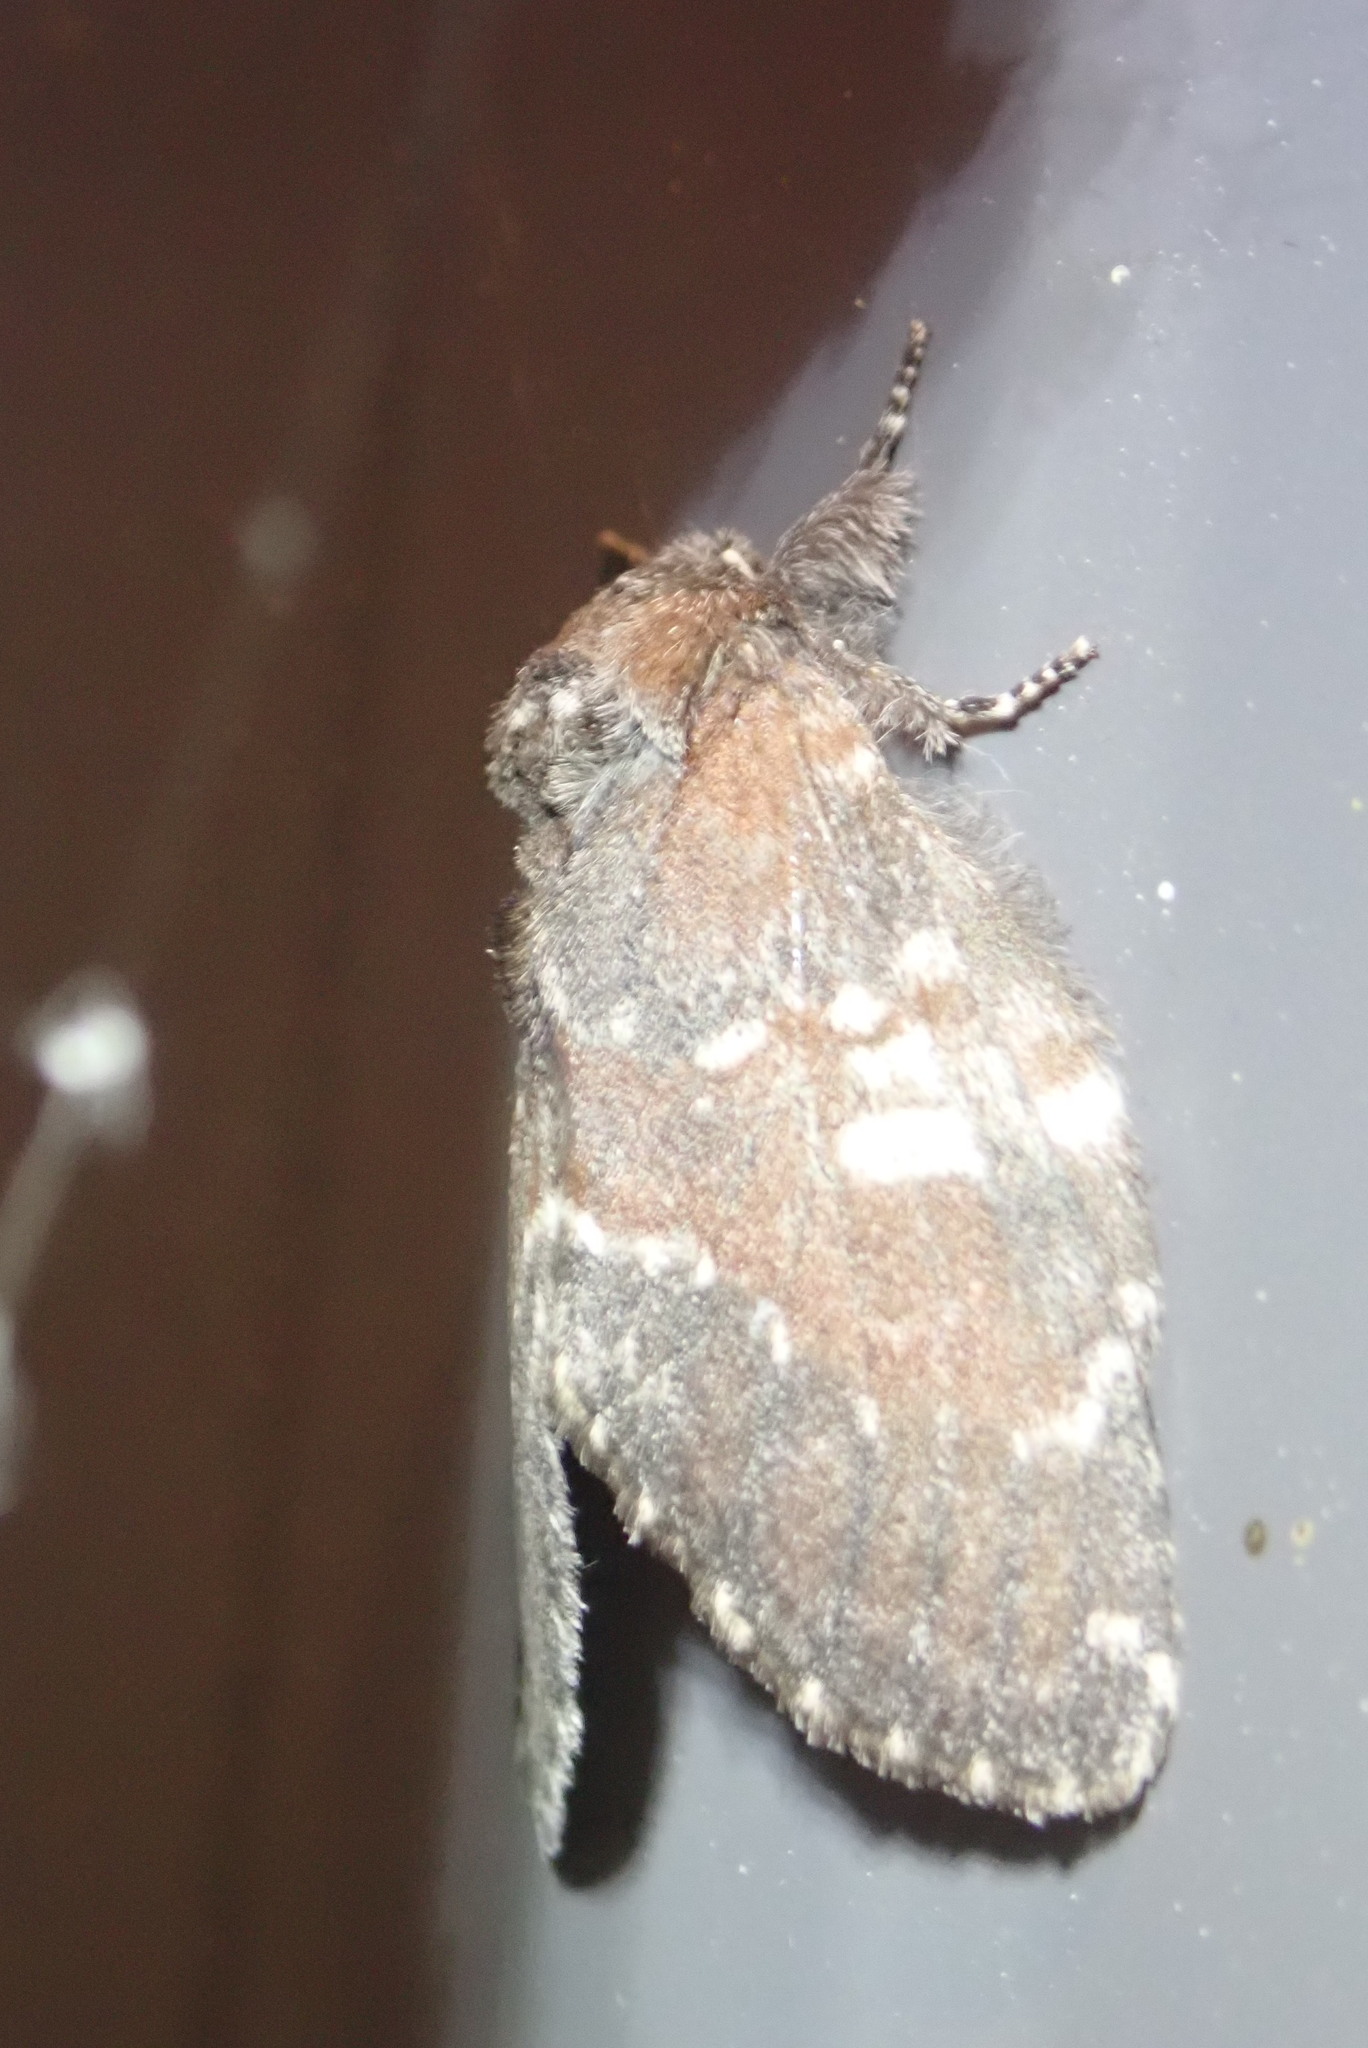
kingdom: Animalia
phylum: Arthropoda
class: Insecta
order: Lepidoptera
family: Notodontidae
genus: Peridea
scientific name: Peridea ferruginea
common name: Chocolate prominent
